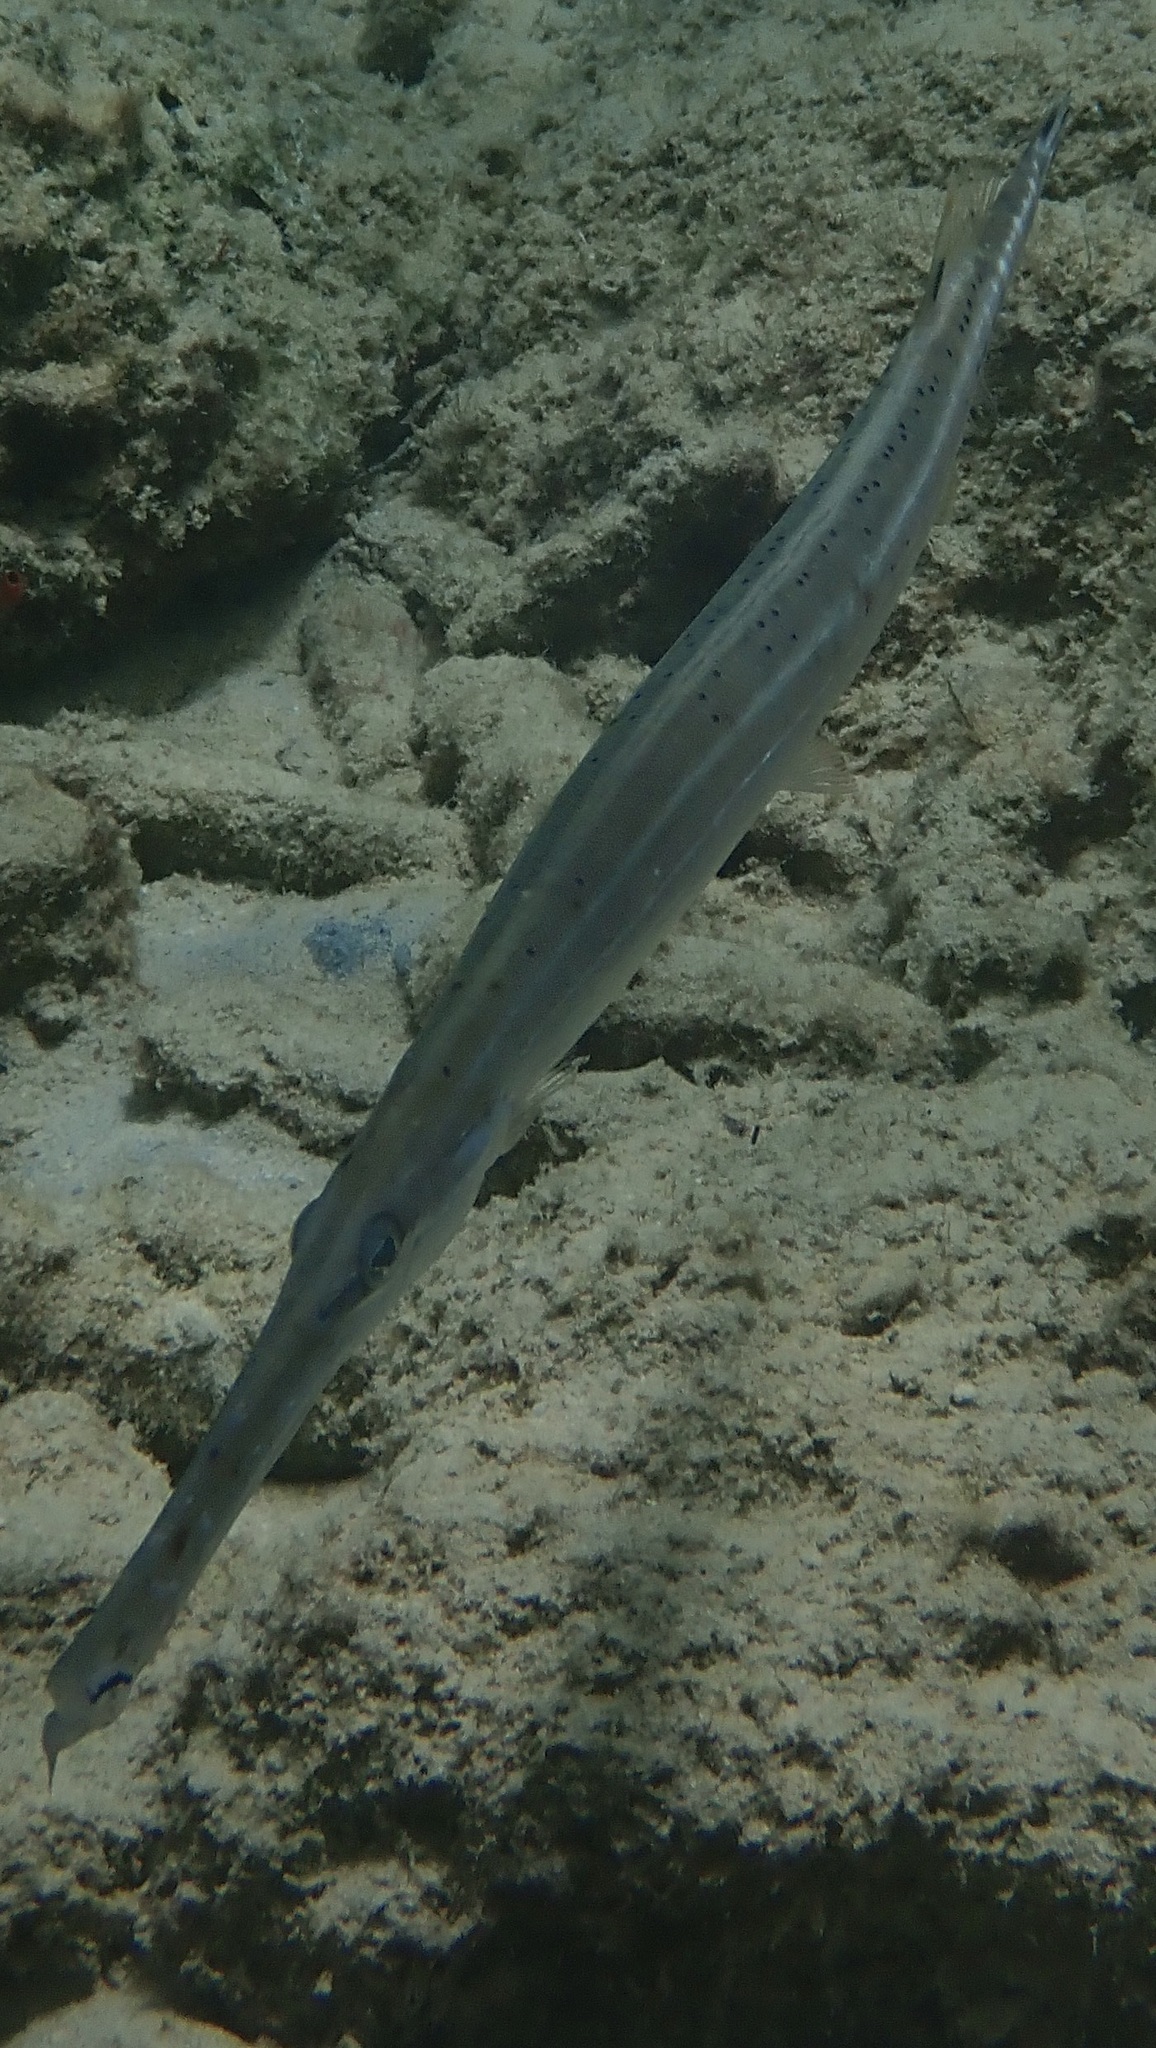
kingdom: Animalia
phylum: Chordata
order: Syngnathiformes
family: Aulostomidae
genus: Aulostomus
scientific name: Aulostomus maculatus
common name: West atlantic trumpetfish
